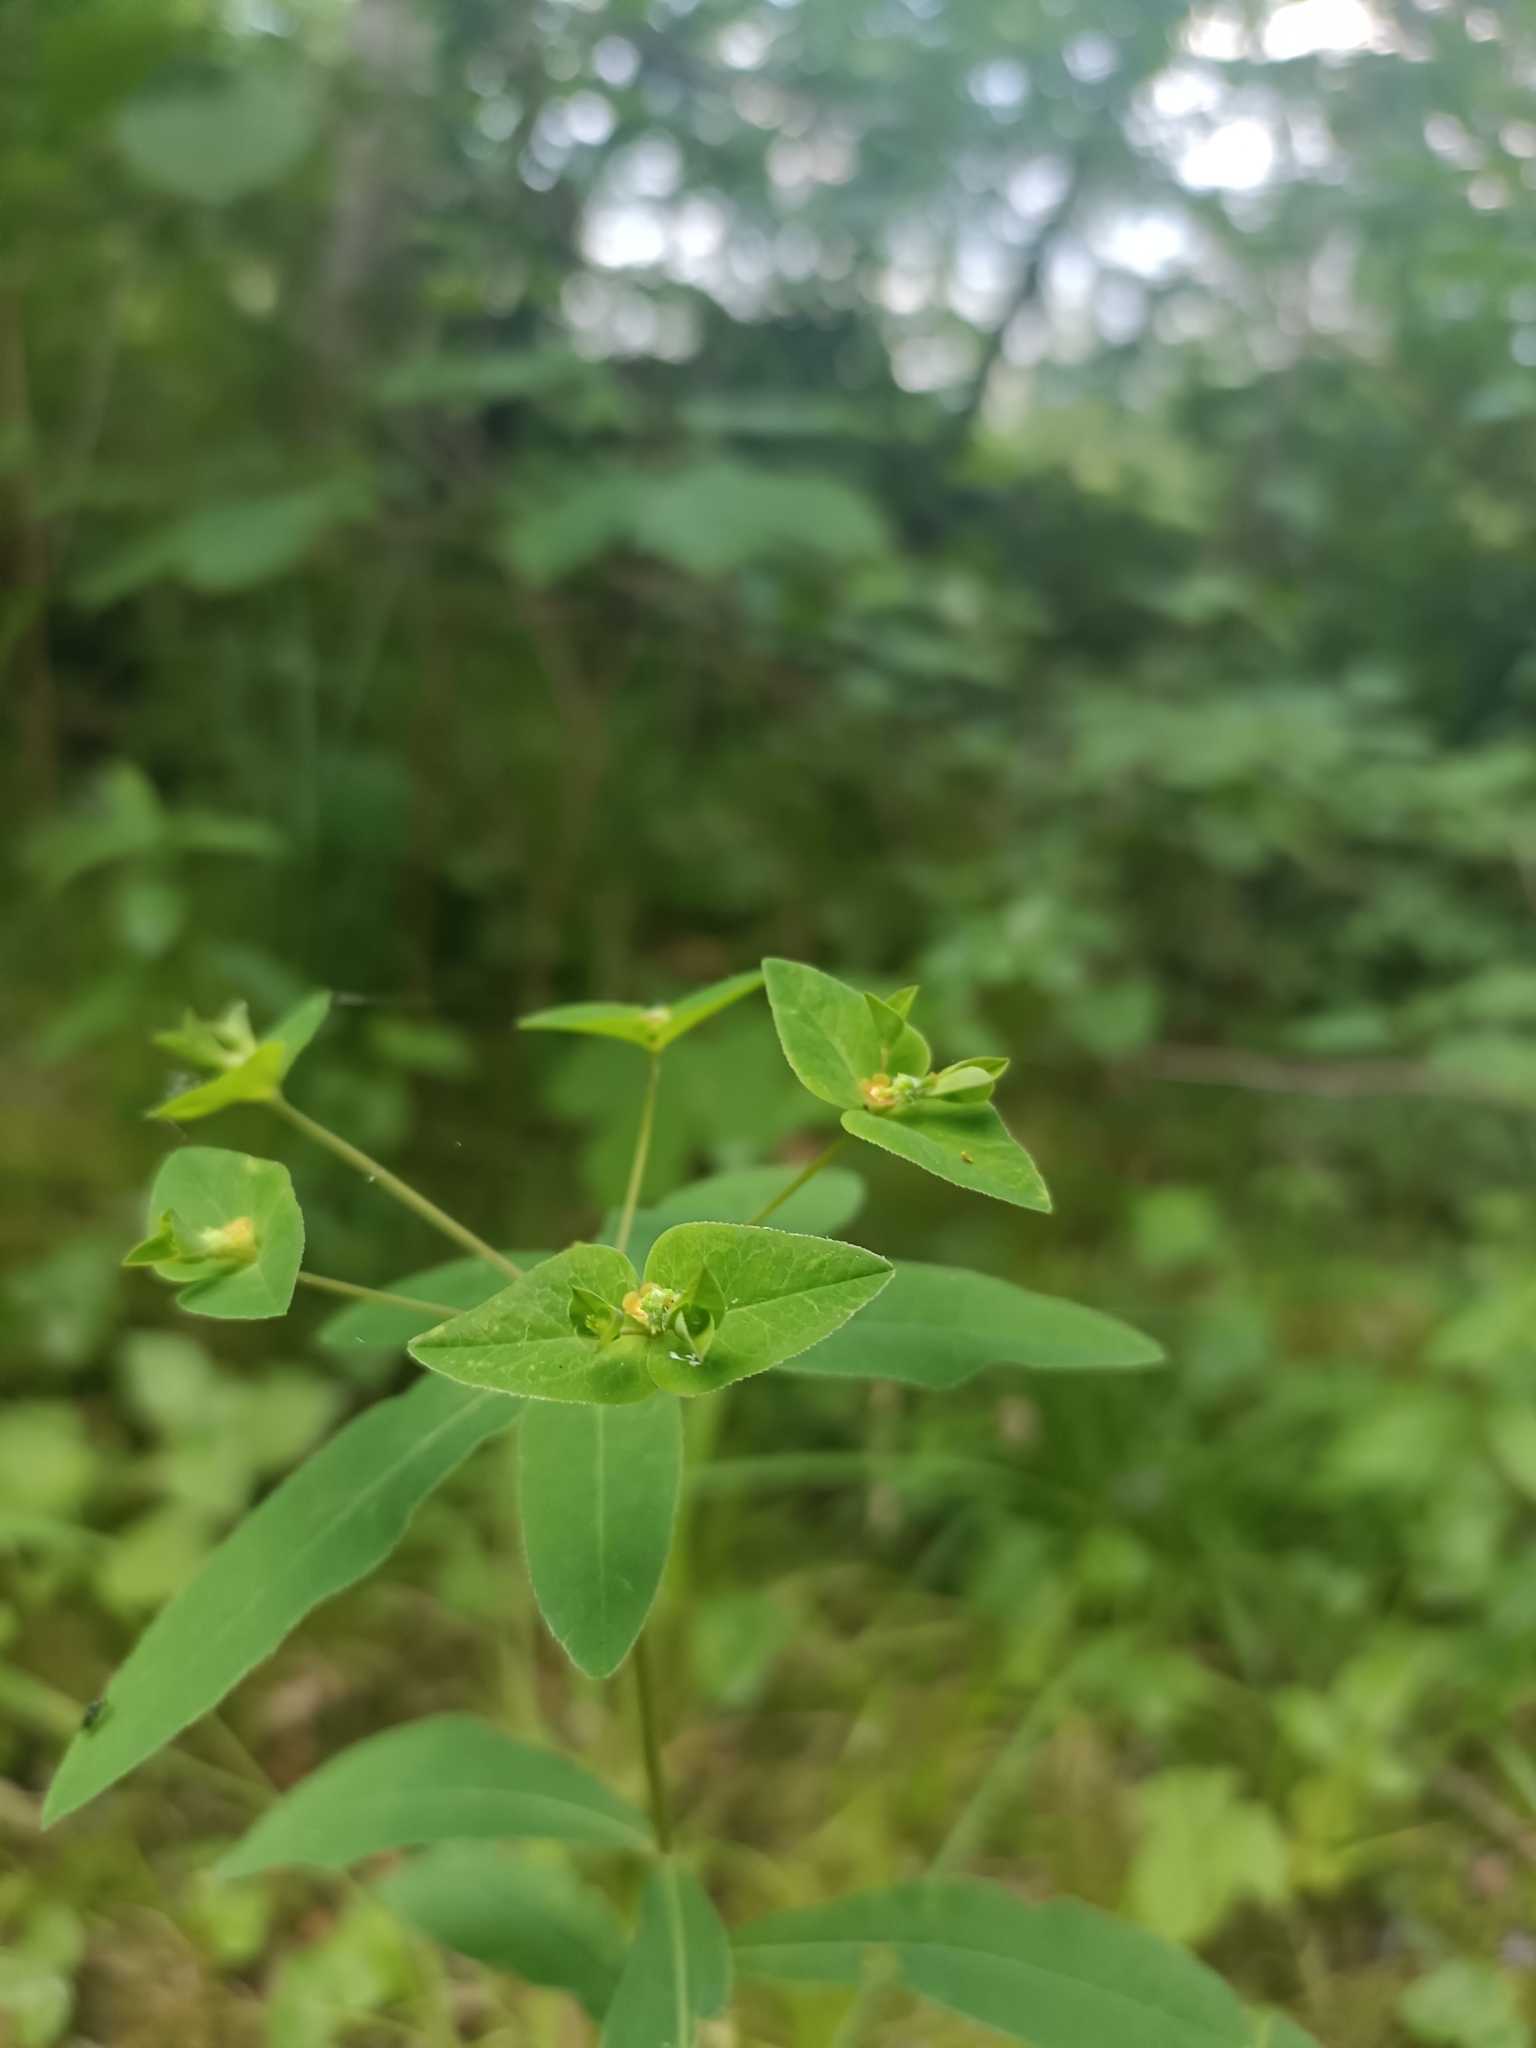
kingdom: Plantae
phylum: Tracheophyta
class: Magnoliopsida
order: Malpighiales
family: Euphorbiaceae
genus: Euphorbia
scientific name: Euphorbia dulcis
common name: Sweet spurge
